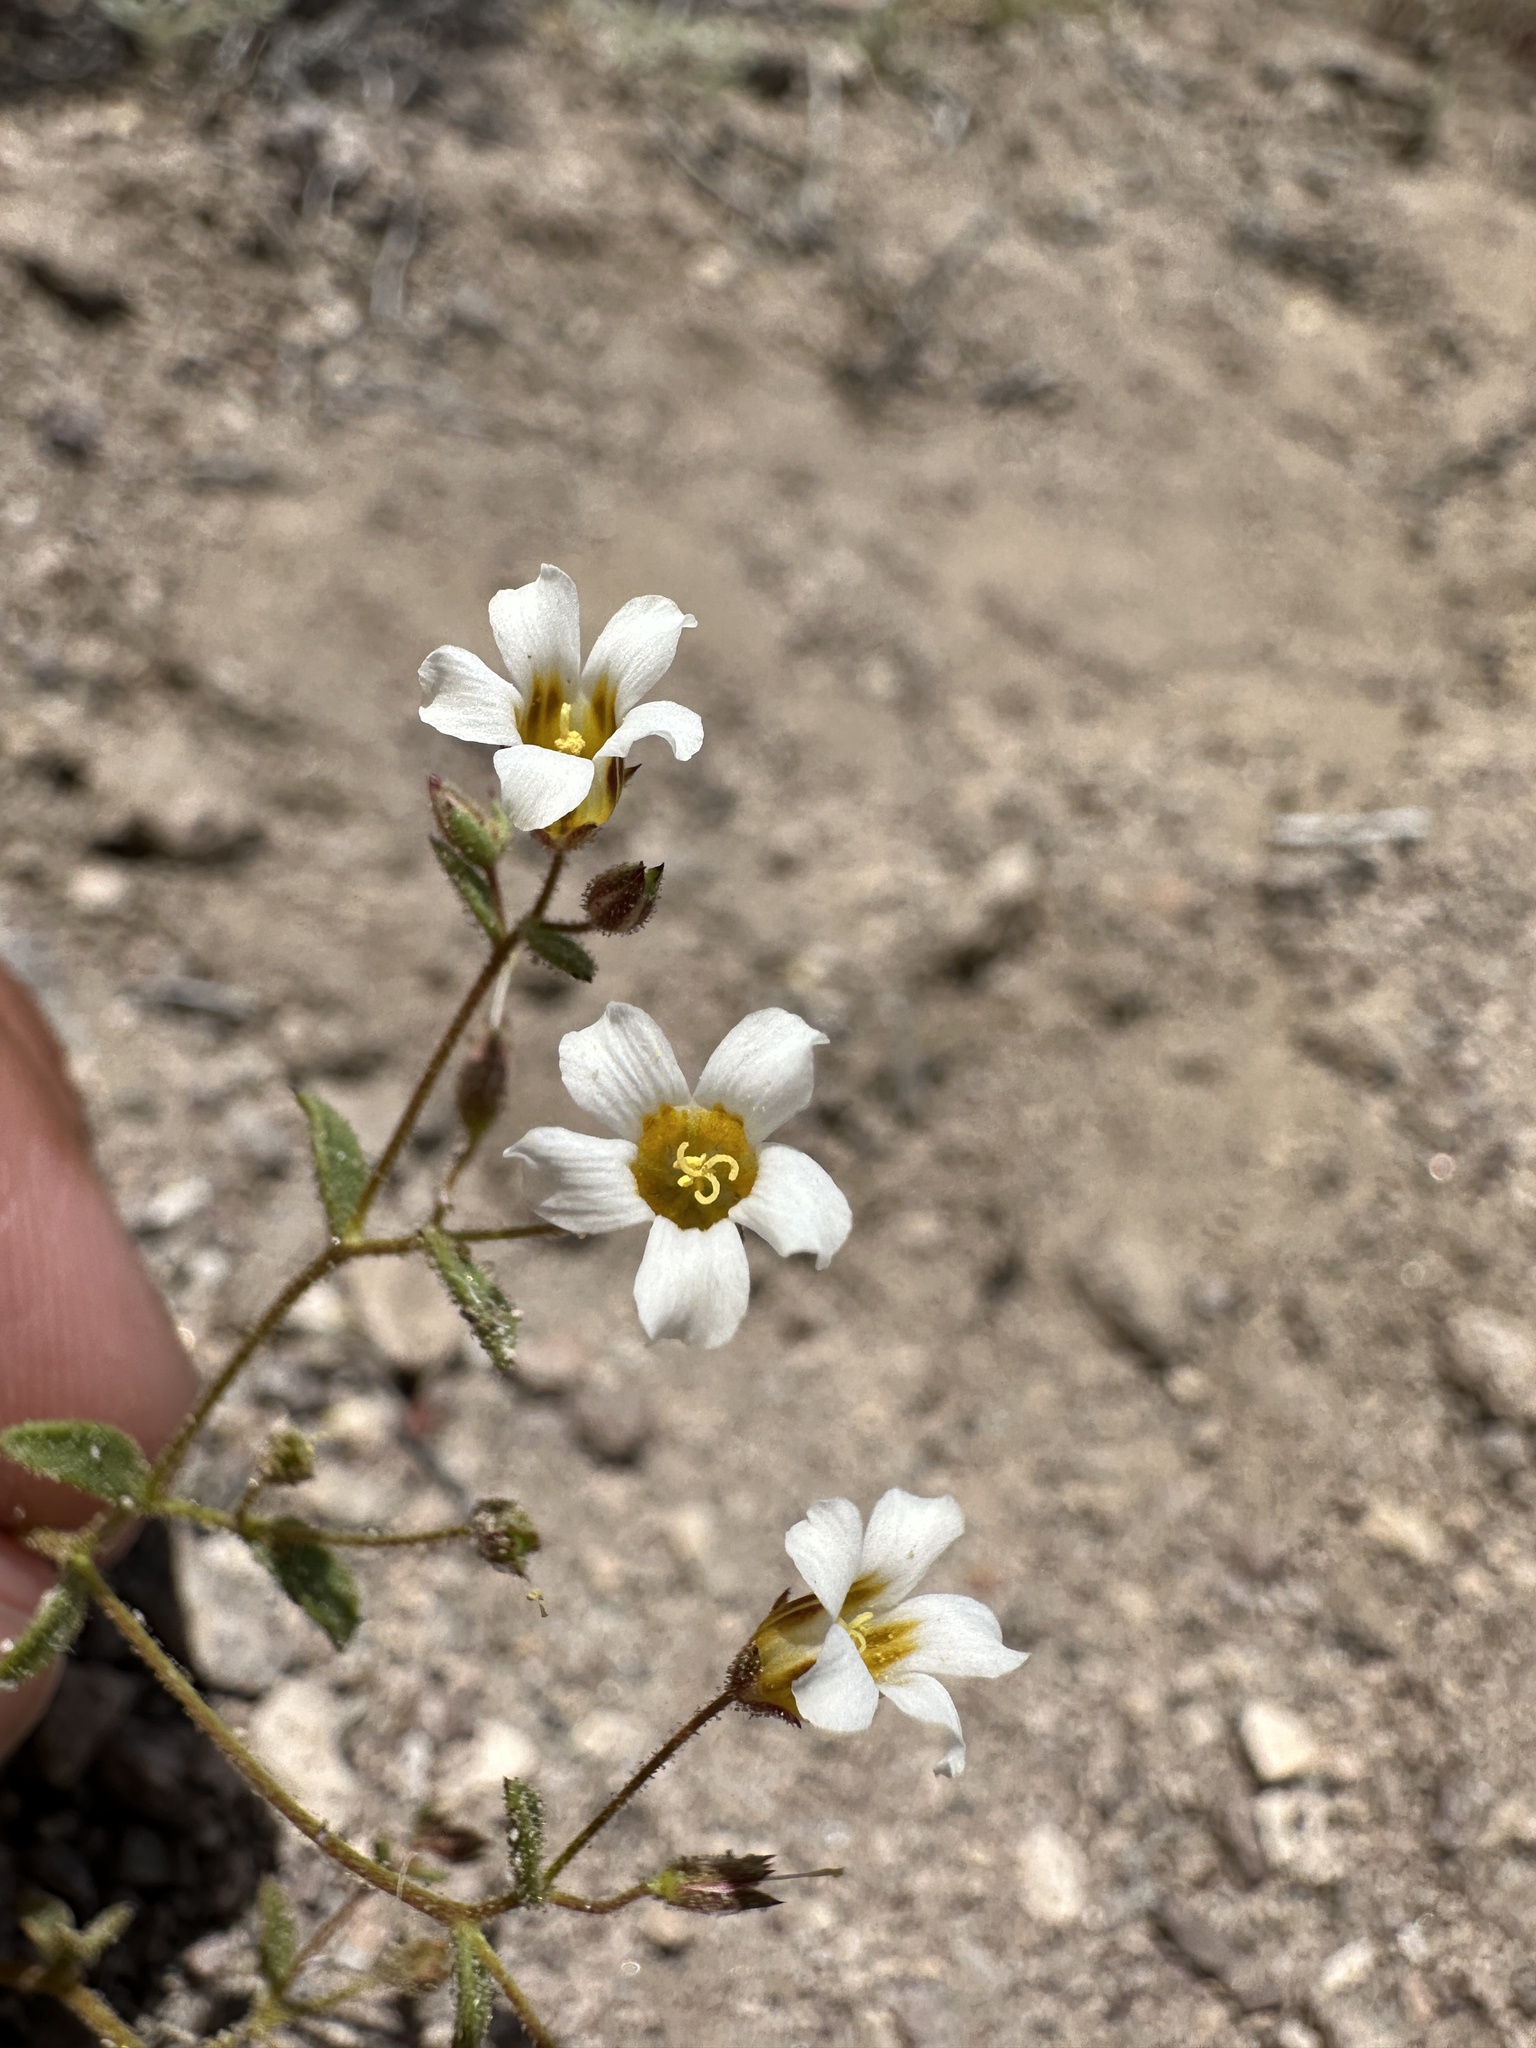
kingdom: Plantae
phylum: Tracheophyta
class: Magnoliopsida
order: Ericales
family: Polemoniaceae
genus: Linanthus
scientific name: Linanthus campanulatus
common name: Bellshape gilia
